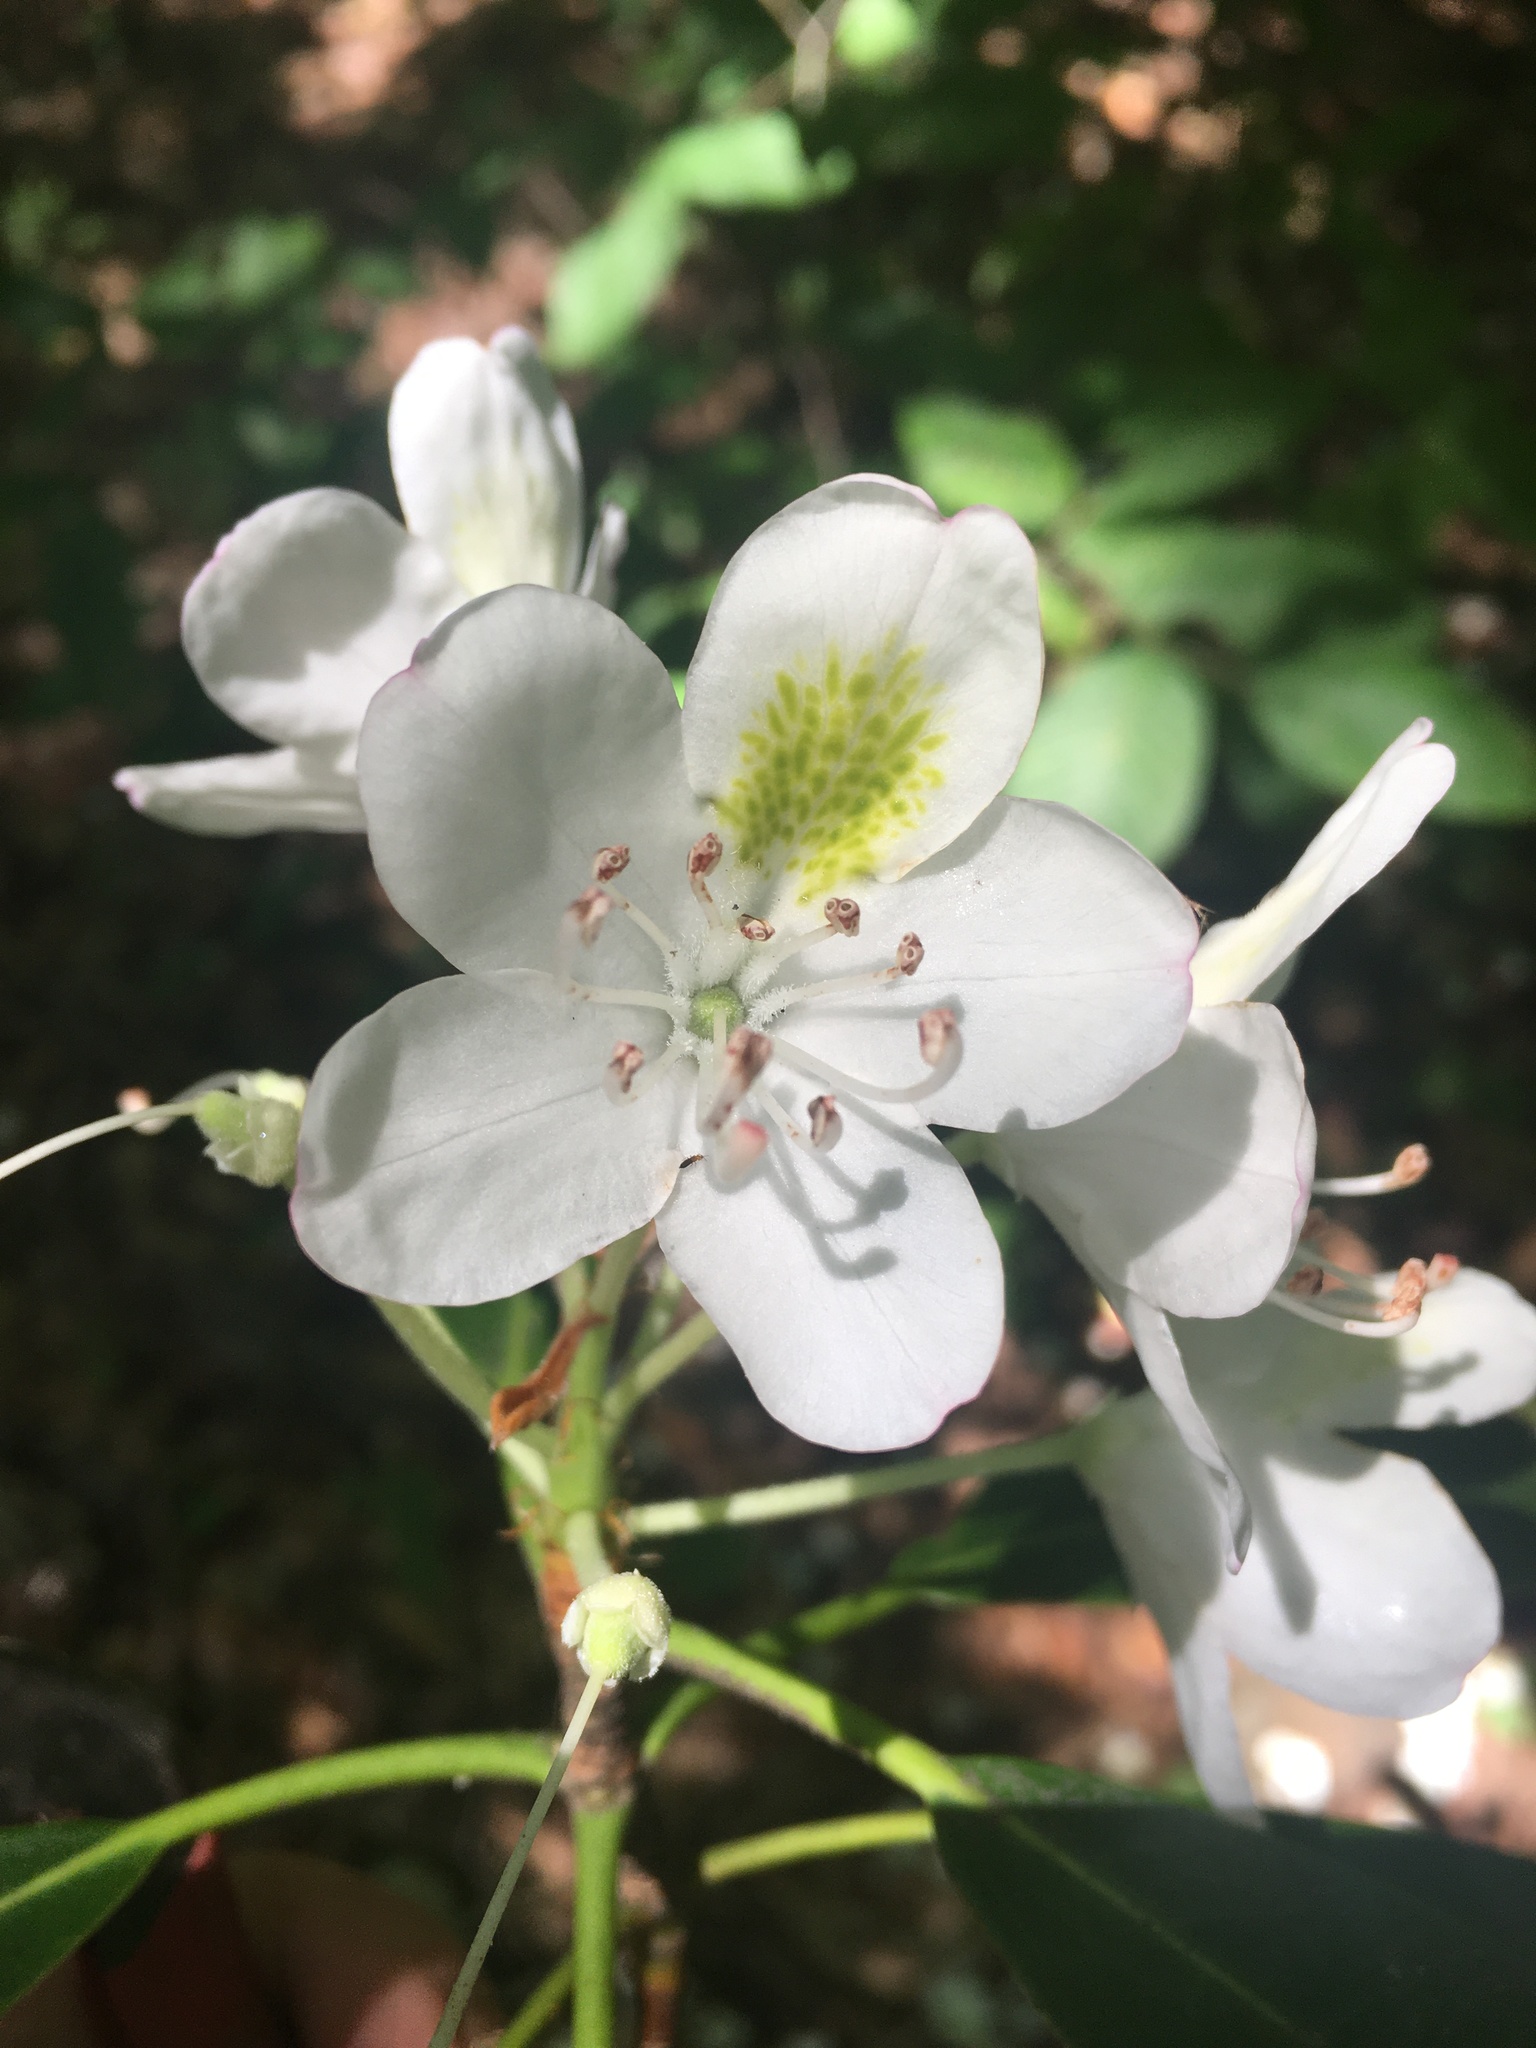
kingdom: Plantae
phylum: Tracheophyta
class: Magnoliopsida
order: Ericales
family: Ericaceae
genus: Rhododendron
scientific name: Rhododendron maximum
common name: Great rhododendron
